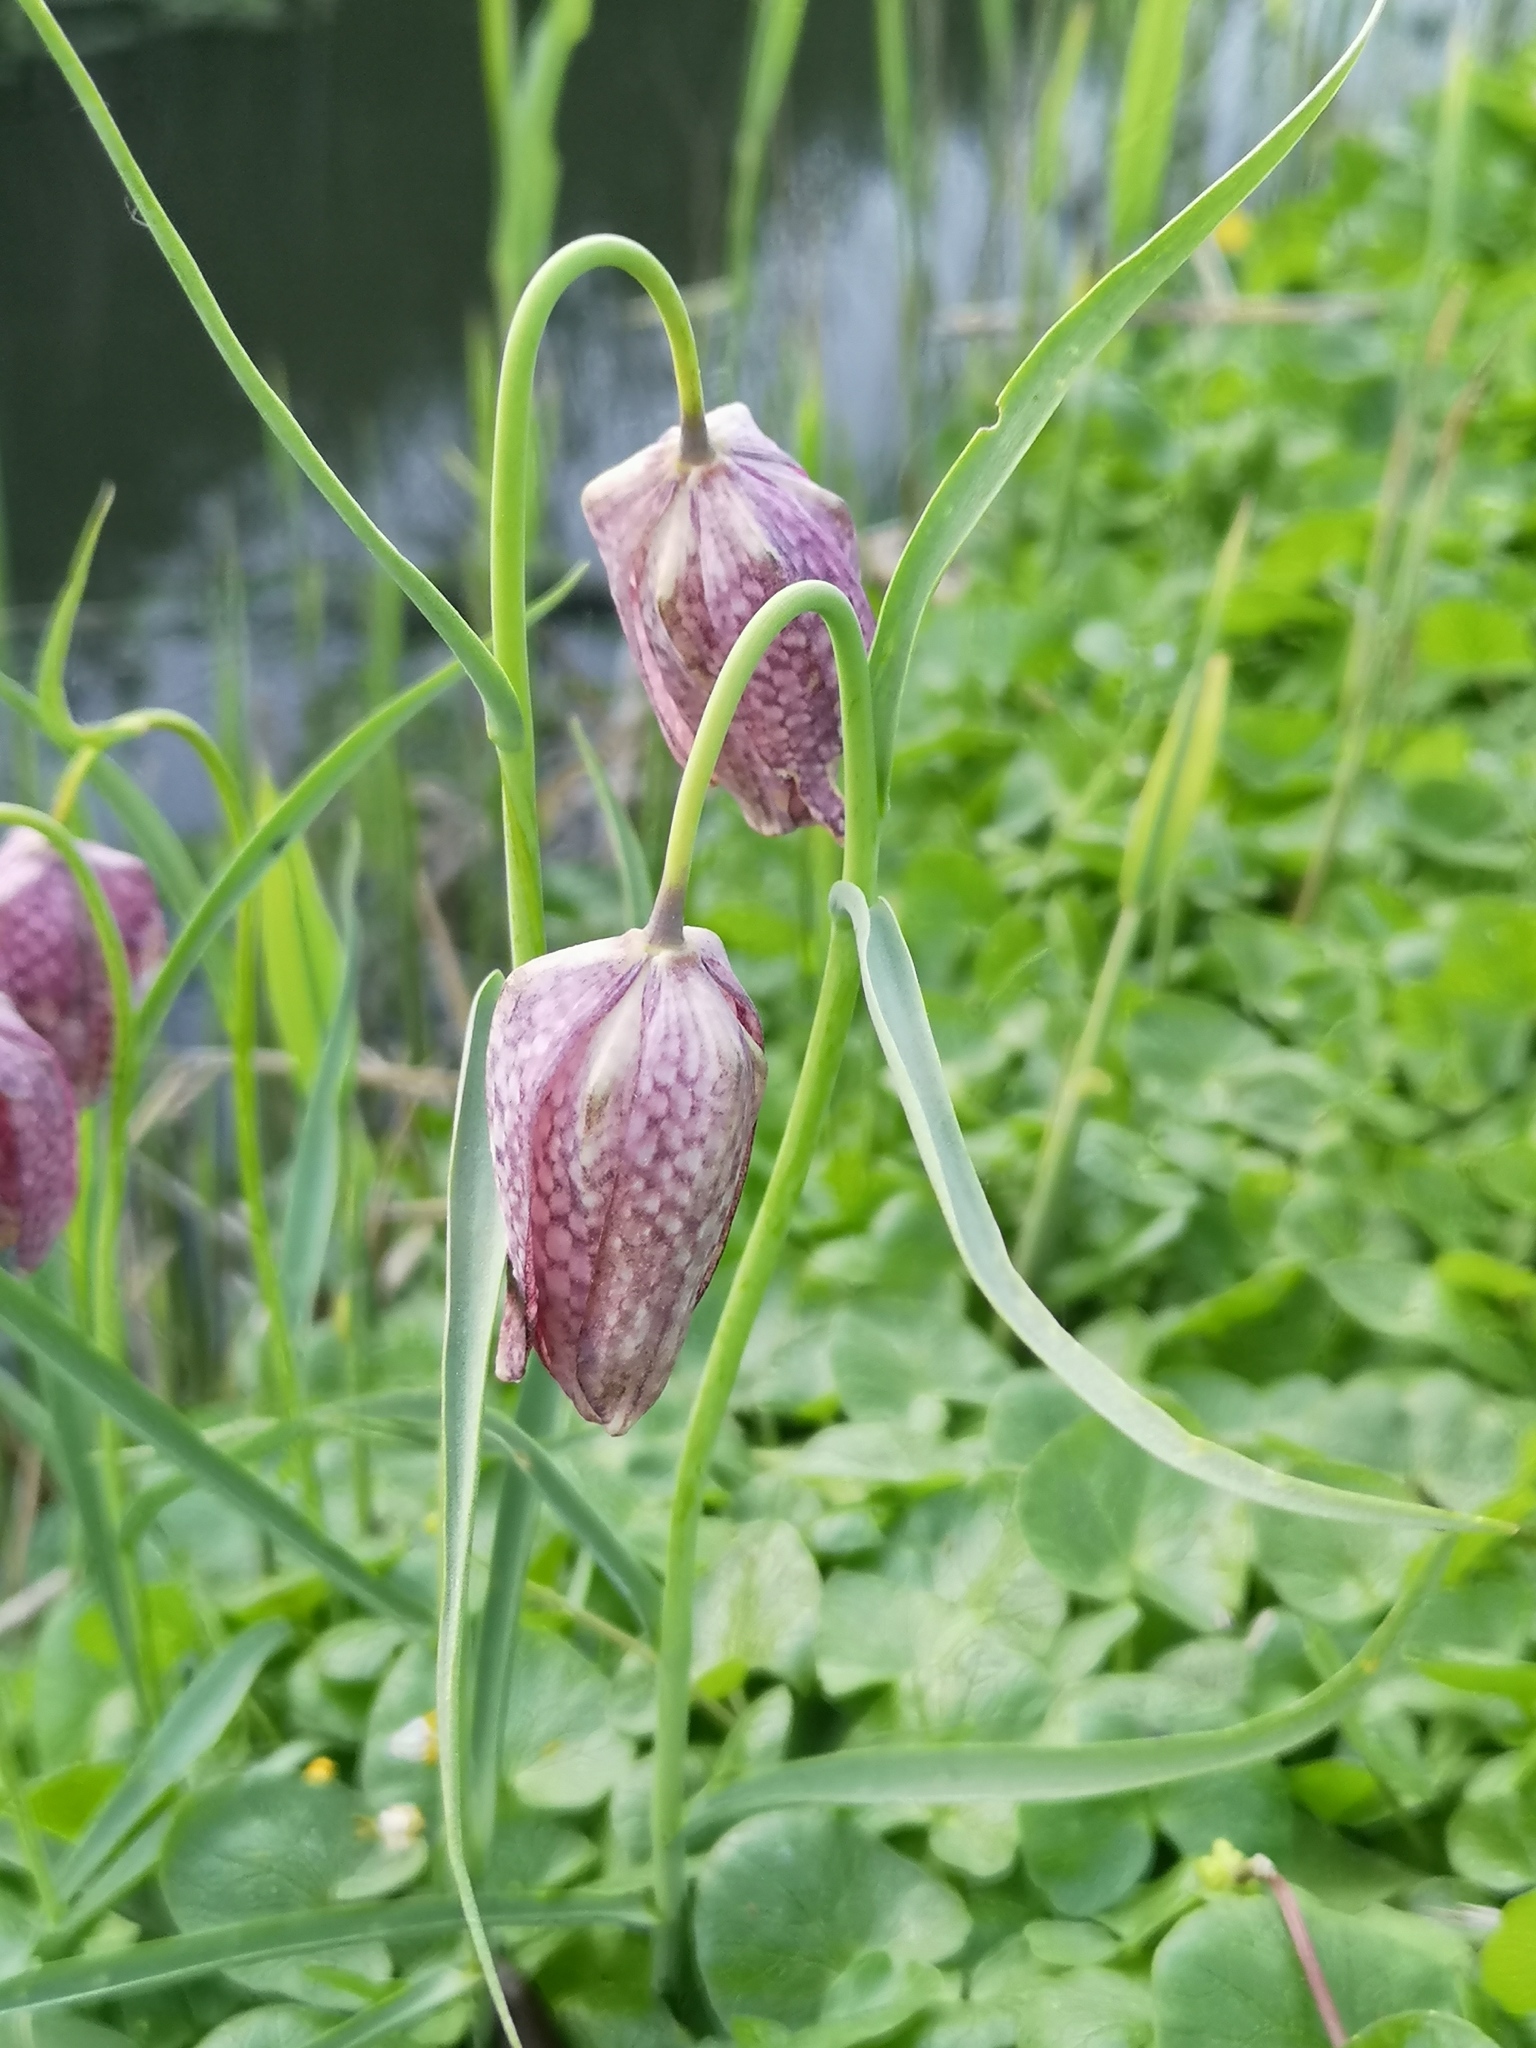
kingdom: Plantae
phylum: Tracheophyta
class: Liliopsida
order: Liliales
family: Liliaceae
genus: Fritillaria
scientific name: Fritillaria meleagris
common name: Fritillary
